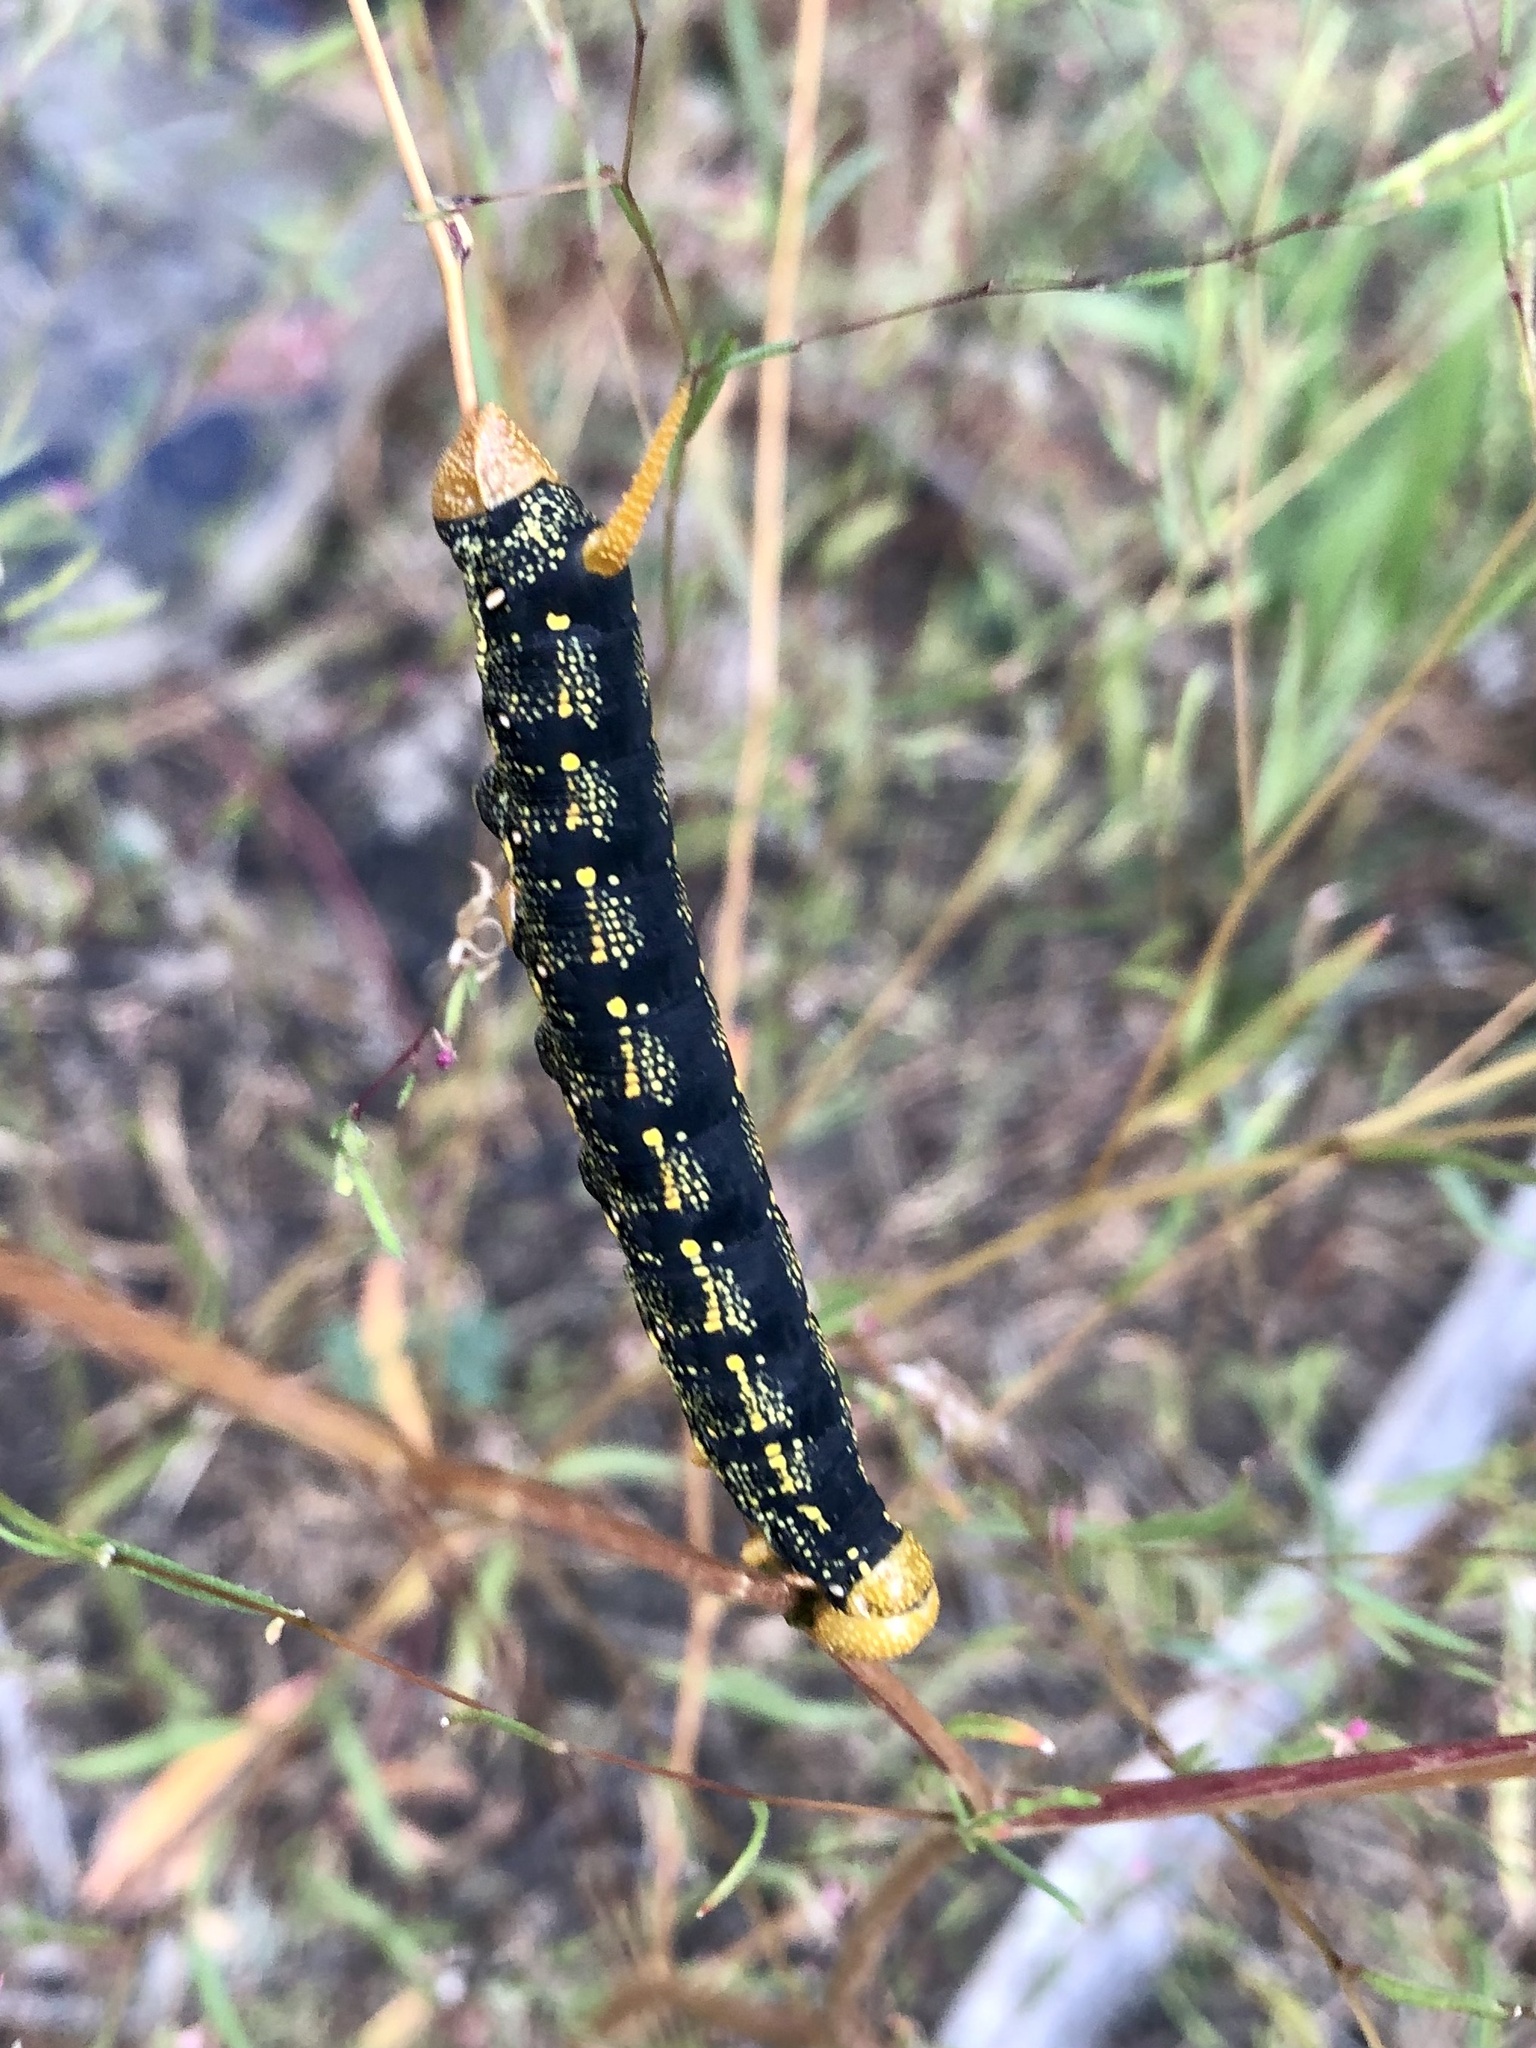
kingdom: Animalia
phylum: Arthropoda
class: Insecta
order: Lepidoptera
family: Sphingidae
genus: Hyles
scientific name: Hyles lineata
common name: White-lined sphinx
